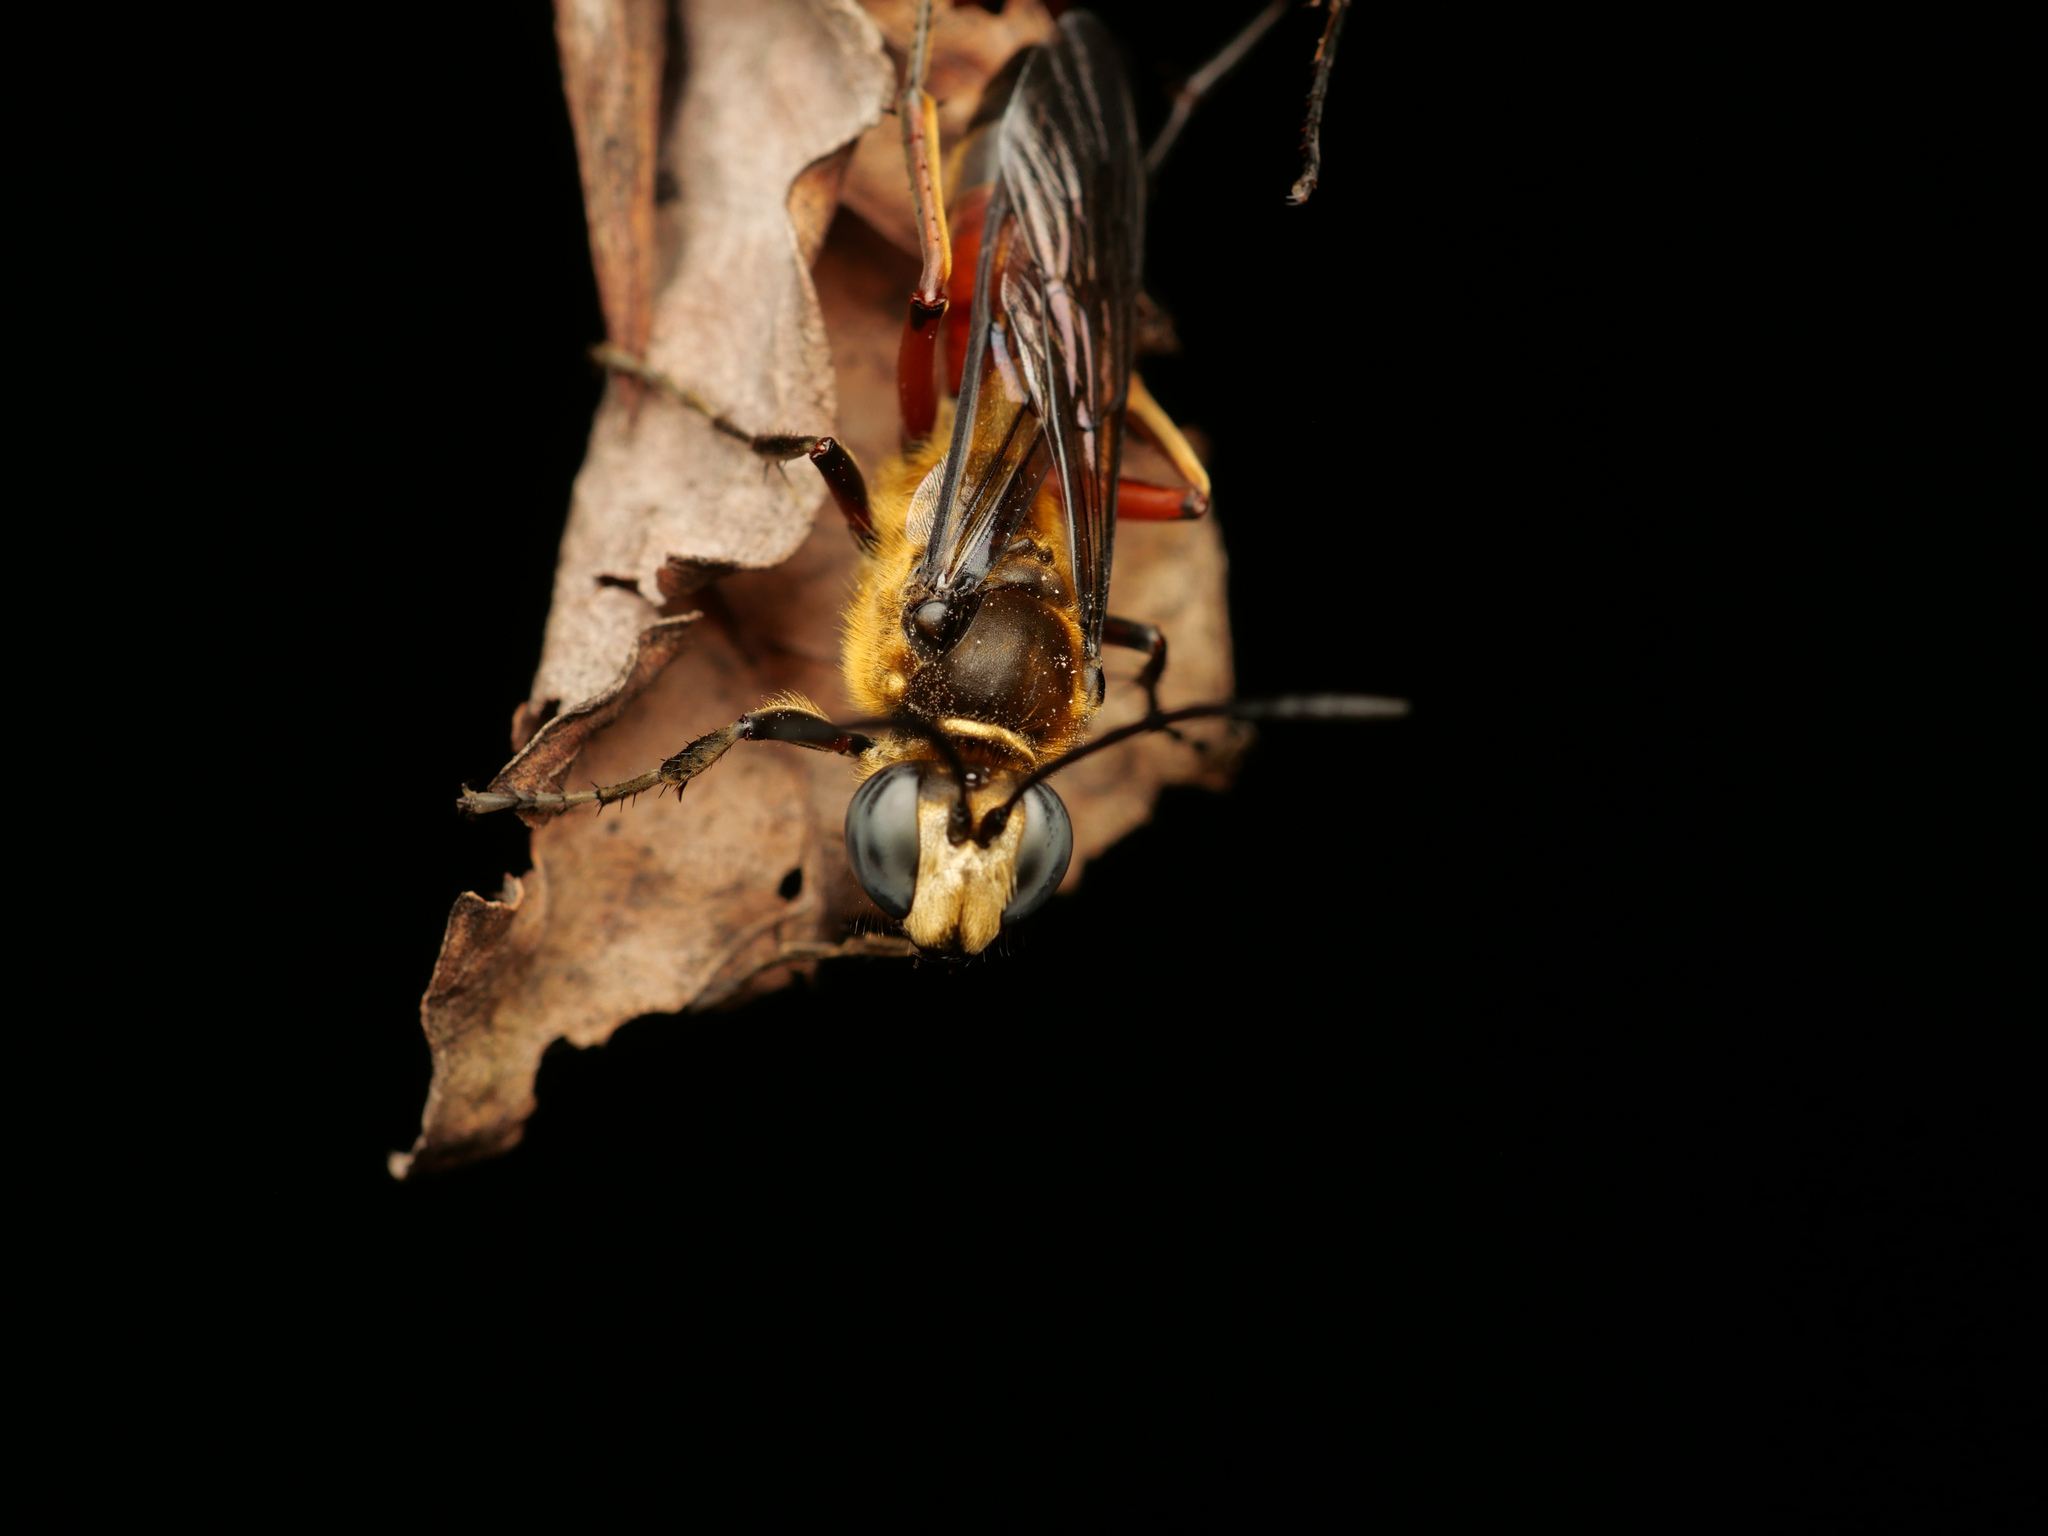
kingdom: Animalia
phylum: Arthropoda
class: Insecta
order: Hymenoptera
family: Sphecidae
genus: Sphex
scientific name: Sphex sericeus
